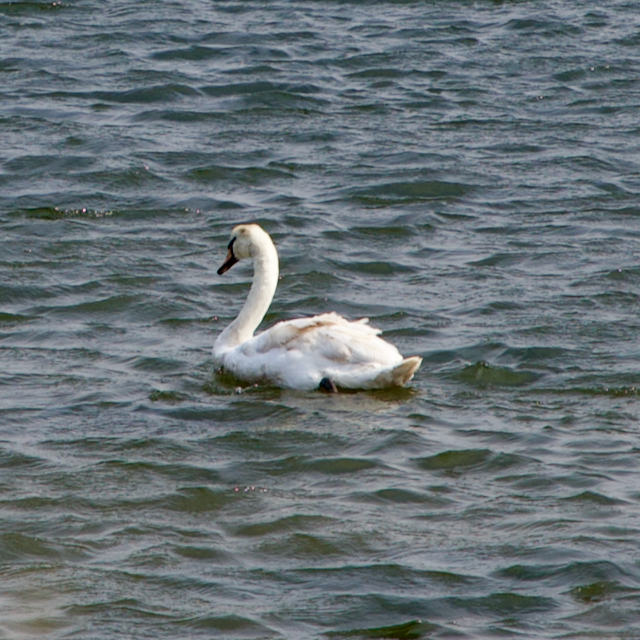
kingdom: Animalia
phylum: Chordata
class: Aves
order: Anseriformes
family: Anatidae
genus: Cygnus
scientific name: Cygnus olor
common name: Mute swan
